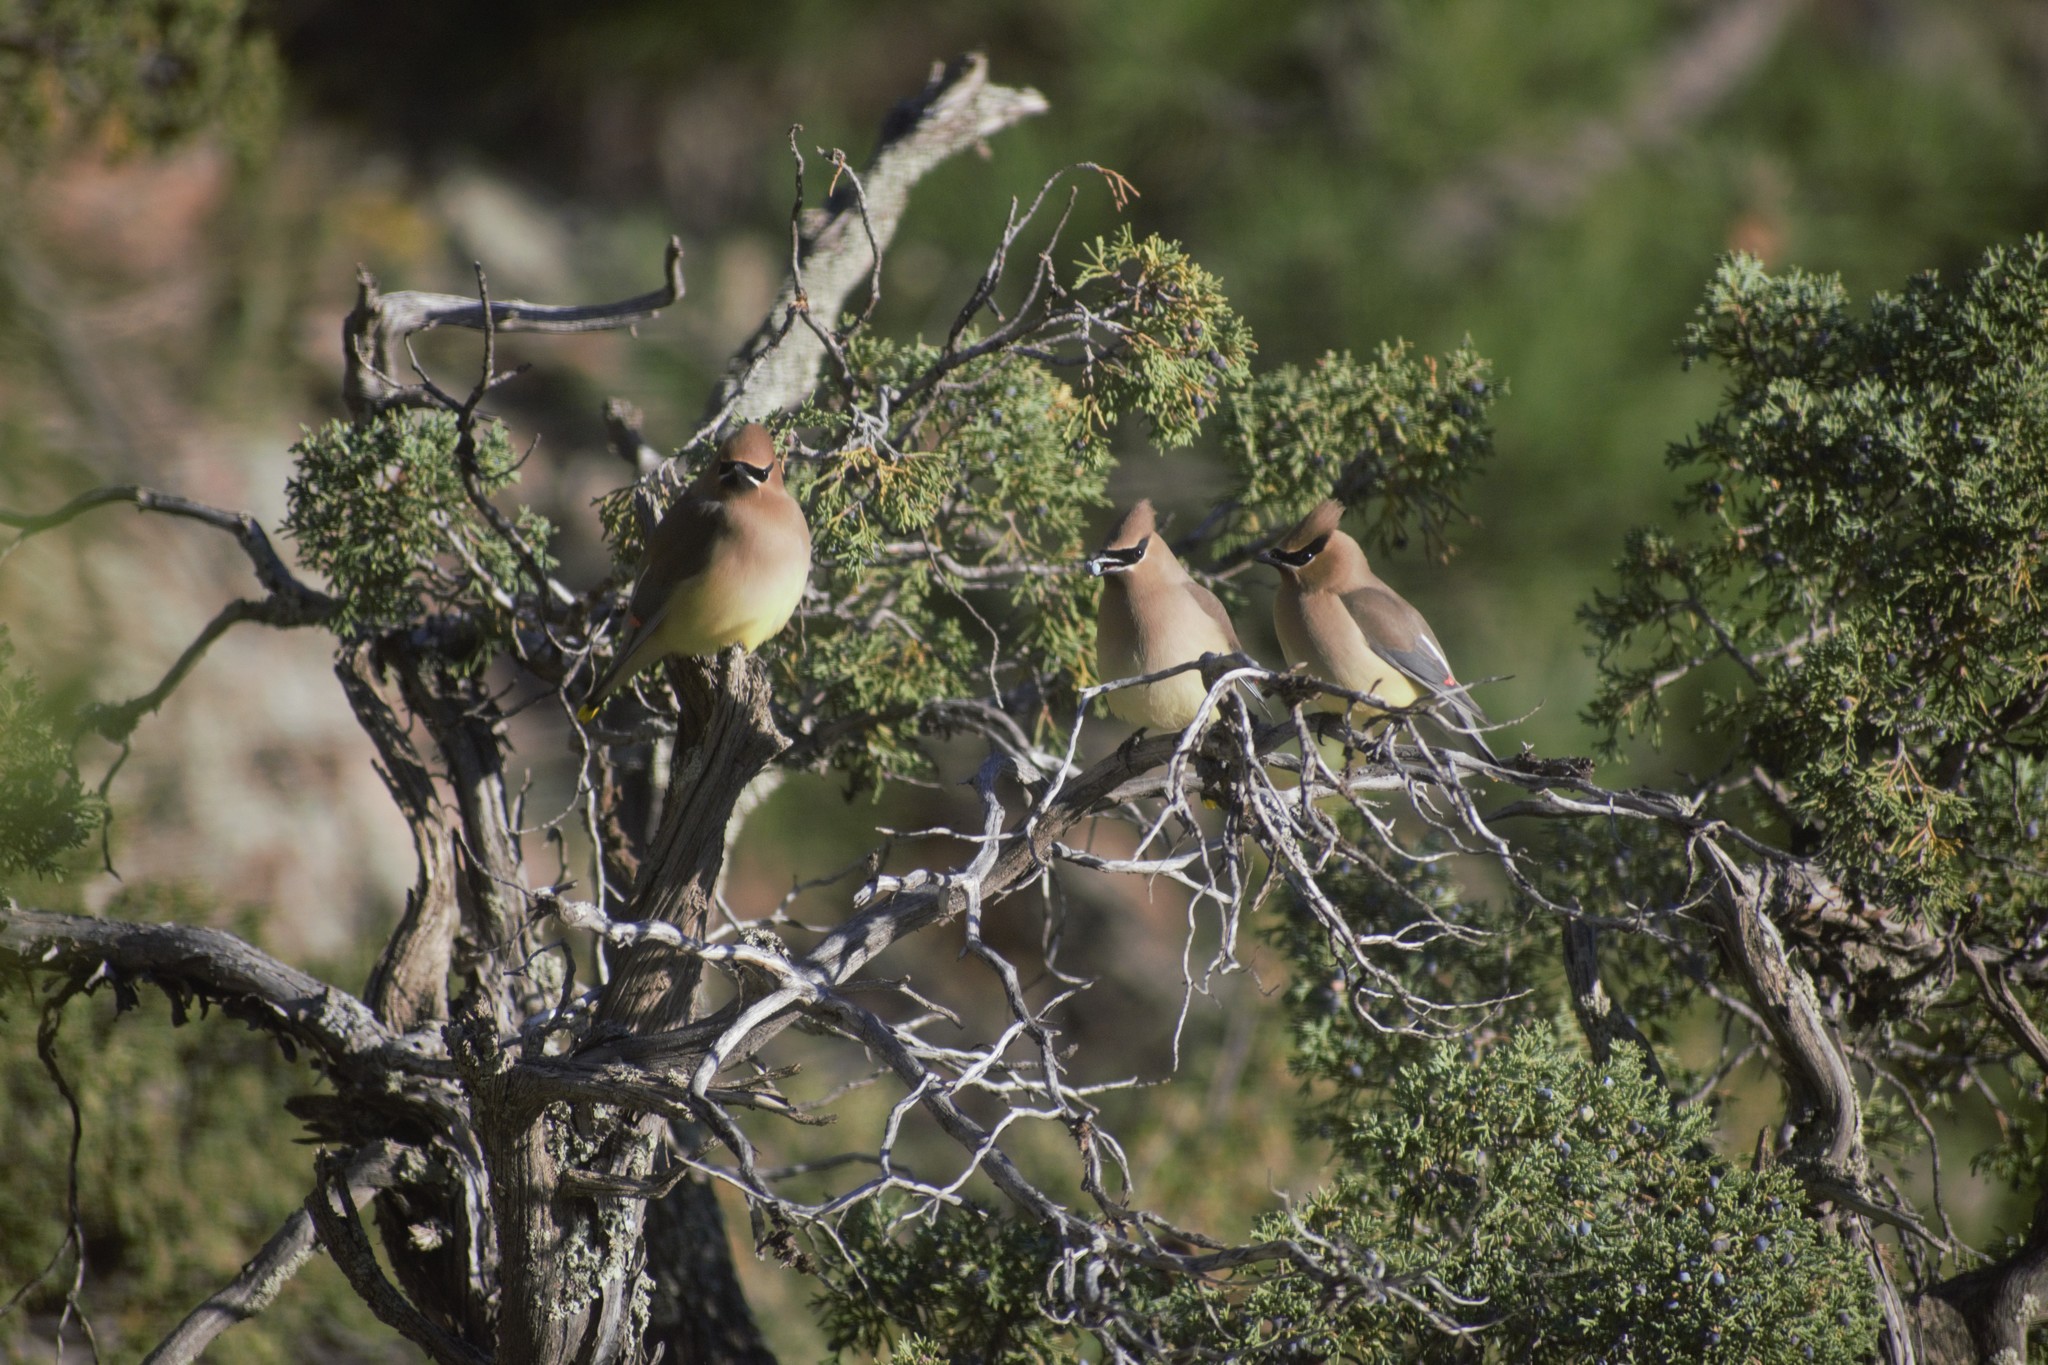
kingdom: Animalia
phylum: Chordata
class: Aves
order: Passeriformes
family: Bombycillidae
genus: Bombycilla
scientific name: Bombycilla cedrorum
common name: Cedar waxwing
